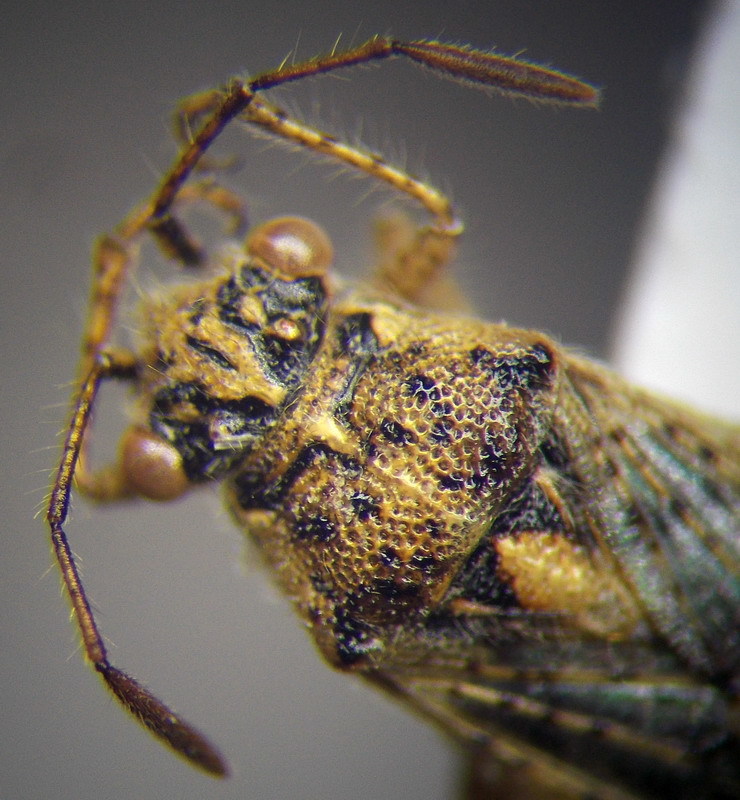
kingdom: Animalia
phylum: Arthropoda
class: Insecta
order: Hemiptera
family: Rhopalidae
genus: Brachycarenus
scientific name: Brachycarenus tigrinus
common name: Scentless plant bug
